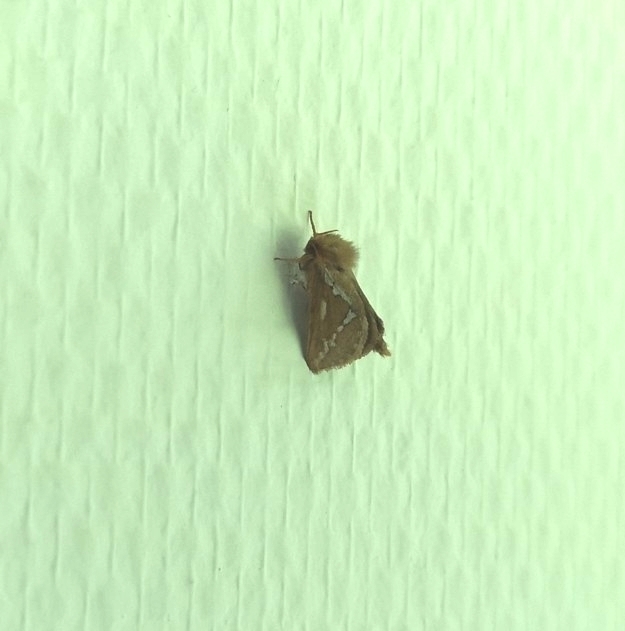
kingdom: Animalia
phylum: Arthropoda
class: Insecta
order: Lepidoptera
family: Hepialidae
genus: Korscheltellus
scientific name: Korscheltellus lupulina
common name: Common swift
